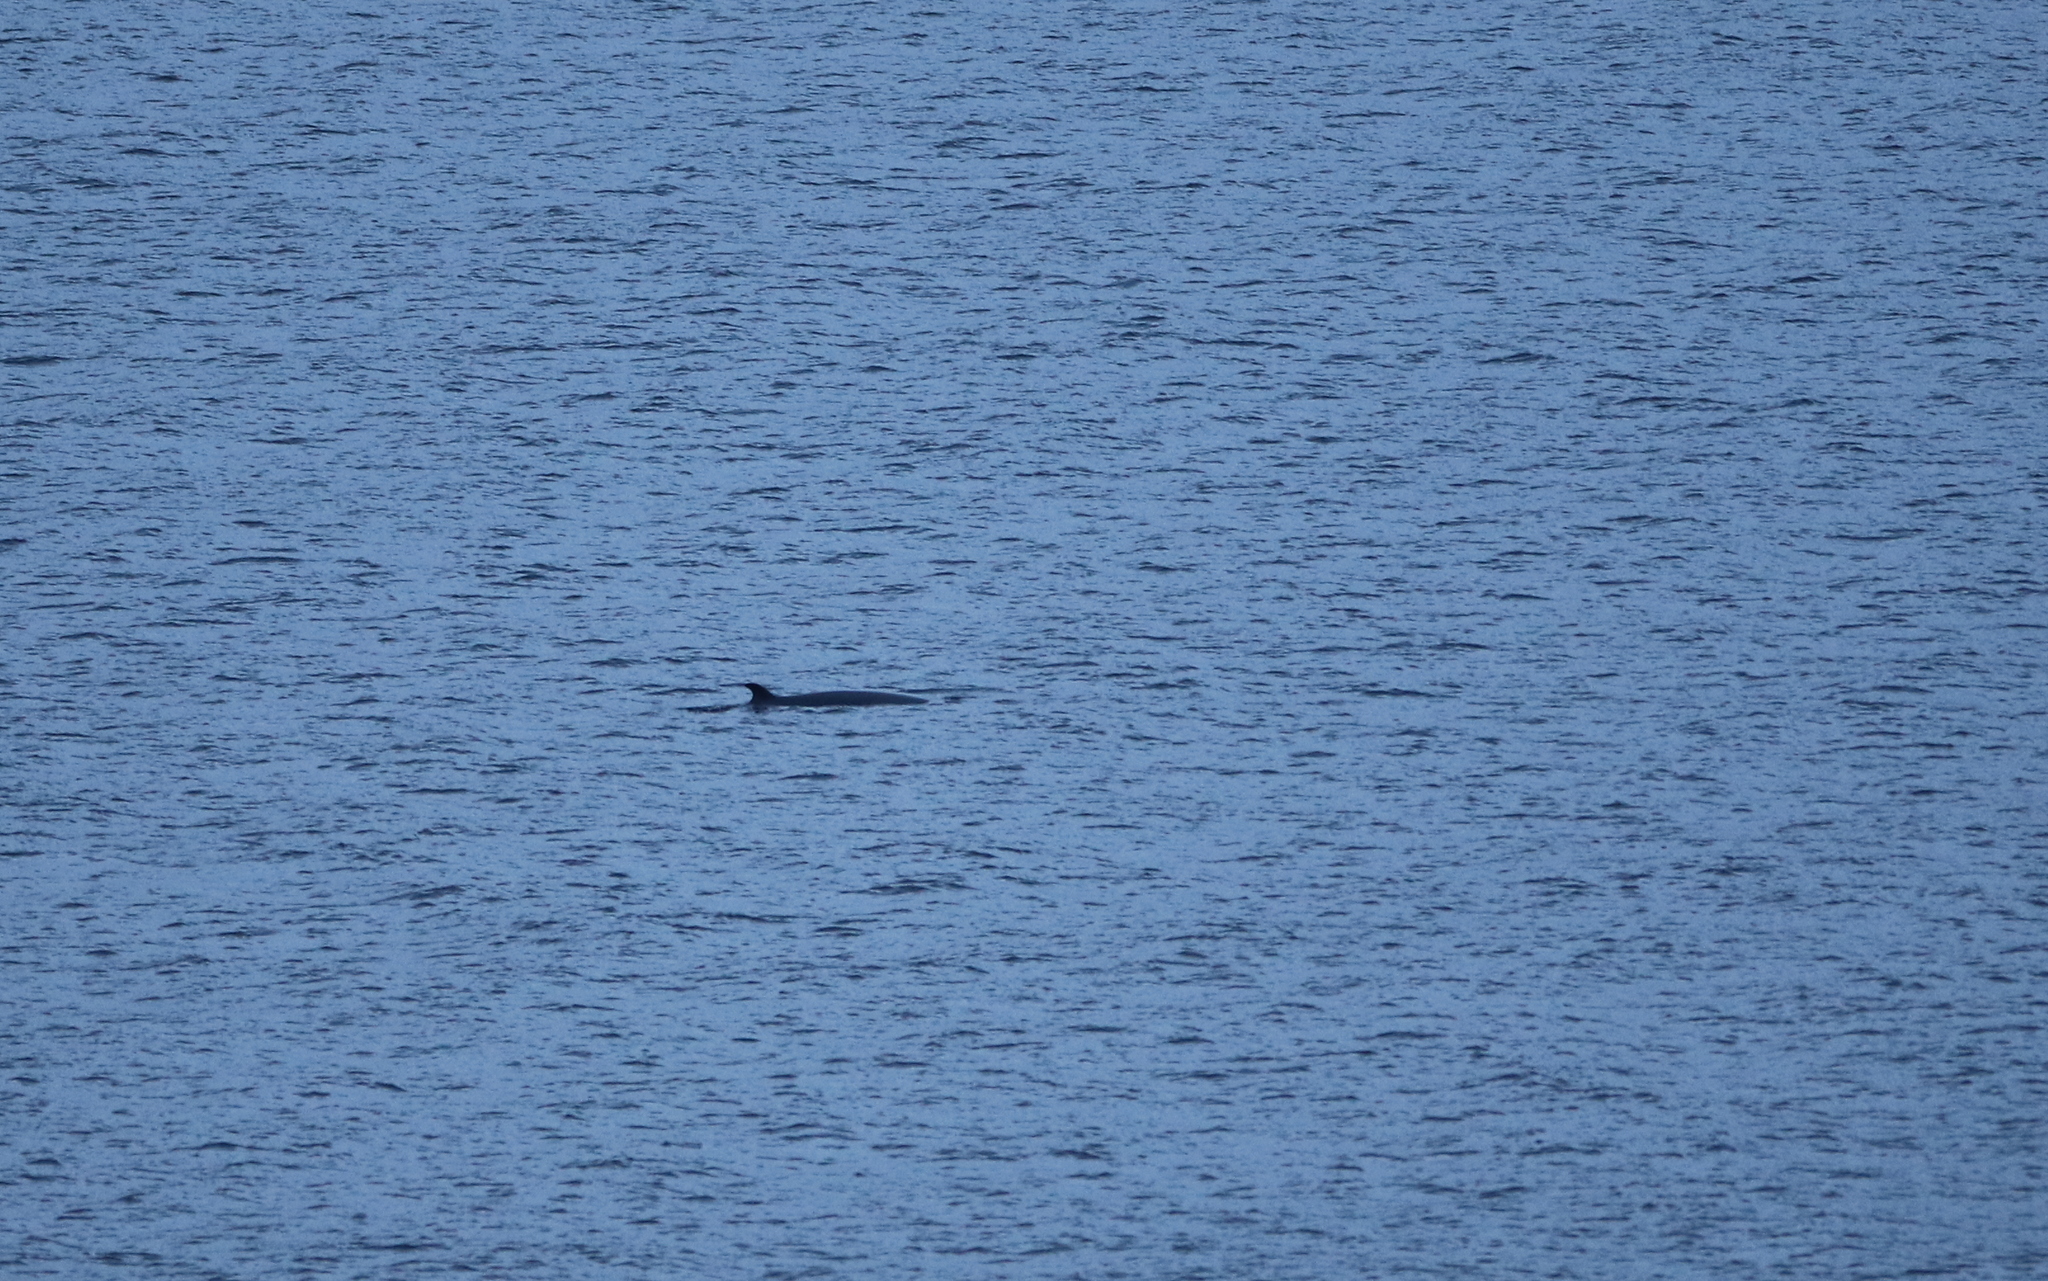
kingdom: Animalia
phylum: Chordata
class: Mammalia
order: Cetacea
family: Balaenopteridae
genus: Balaenoptera
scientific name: Balaenoptera acutorostrata
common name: Common minke whale
